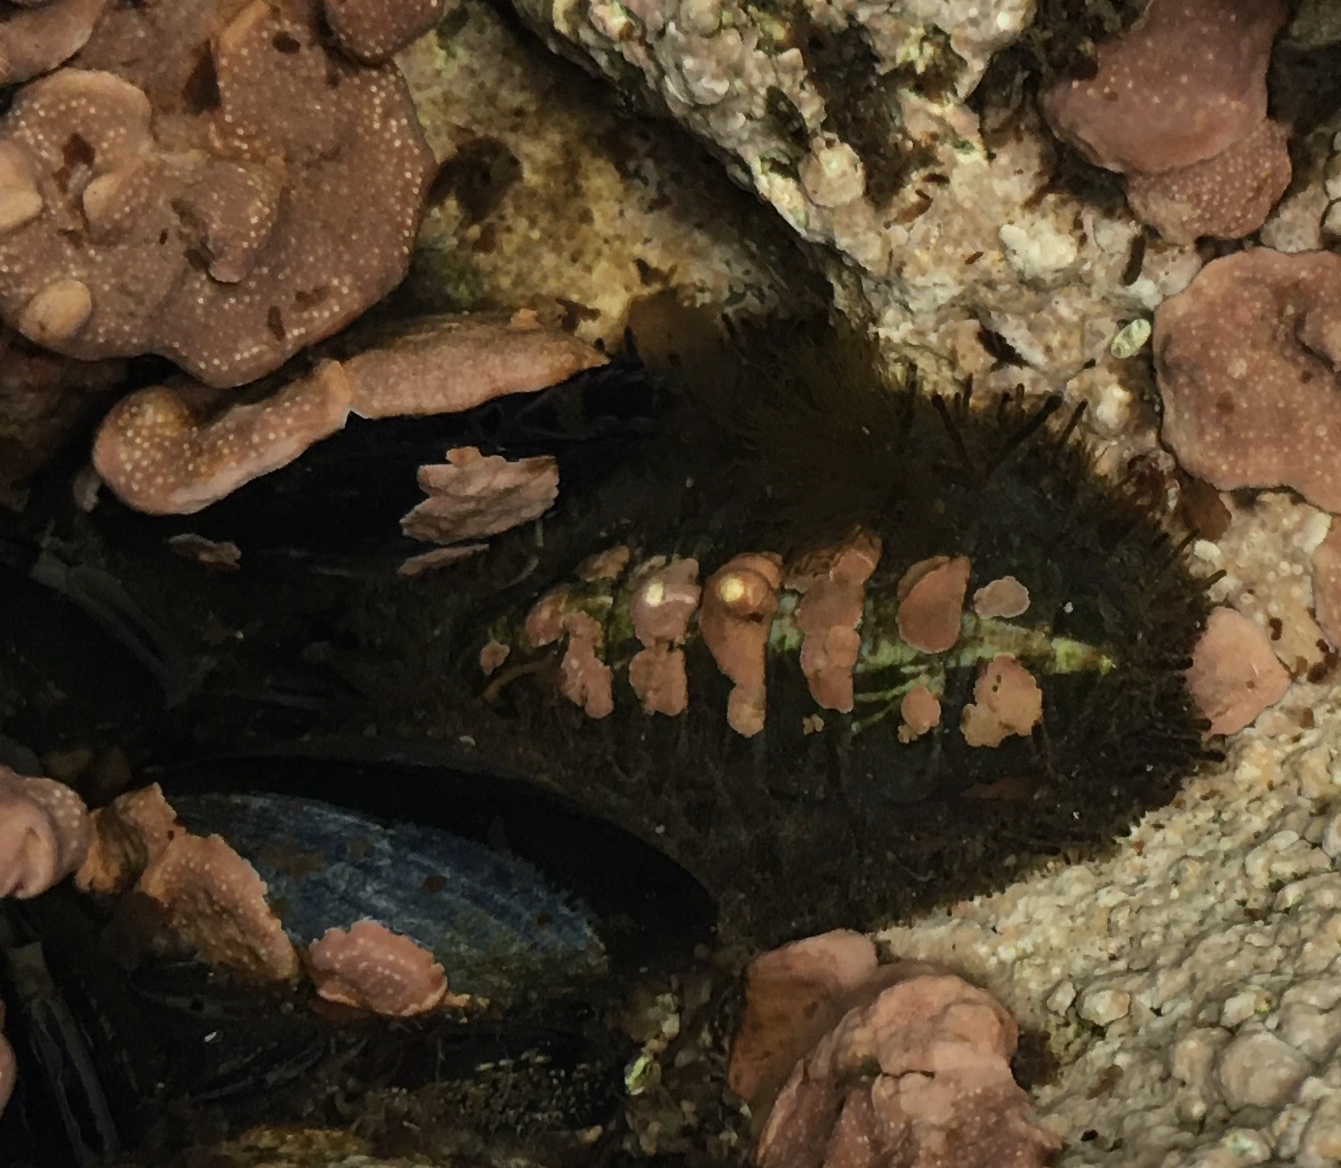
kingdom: Animalia
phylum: Mollusca
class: Polyplacophora
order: Chitonida
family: Mopaliidae
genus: Plaxiphora
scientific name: Plaxiphora aurata
